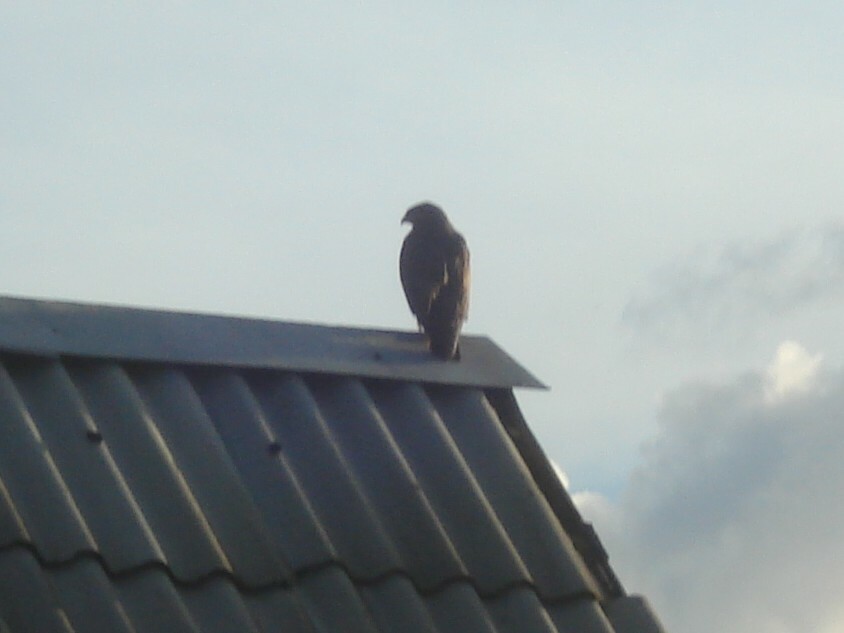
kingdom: Animalia
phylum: Chordata
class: Aves
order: Accipitriformes
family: Accipitridae
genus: Buteo
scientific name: Buteo buteo
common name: Common buzzard
